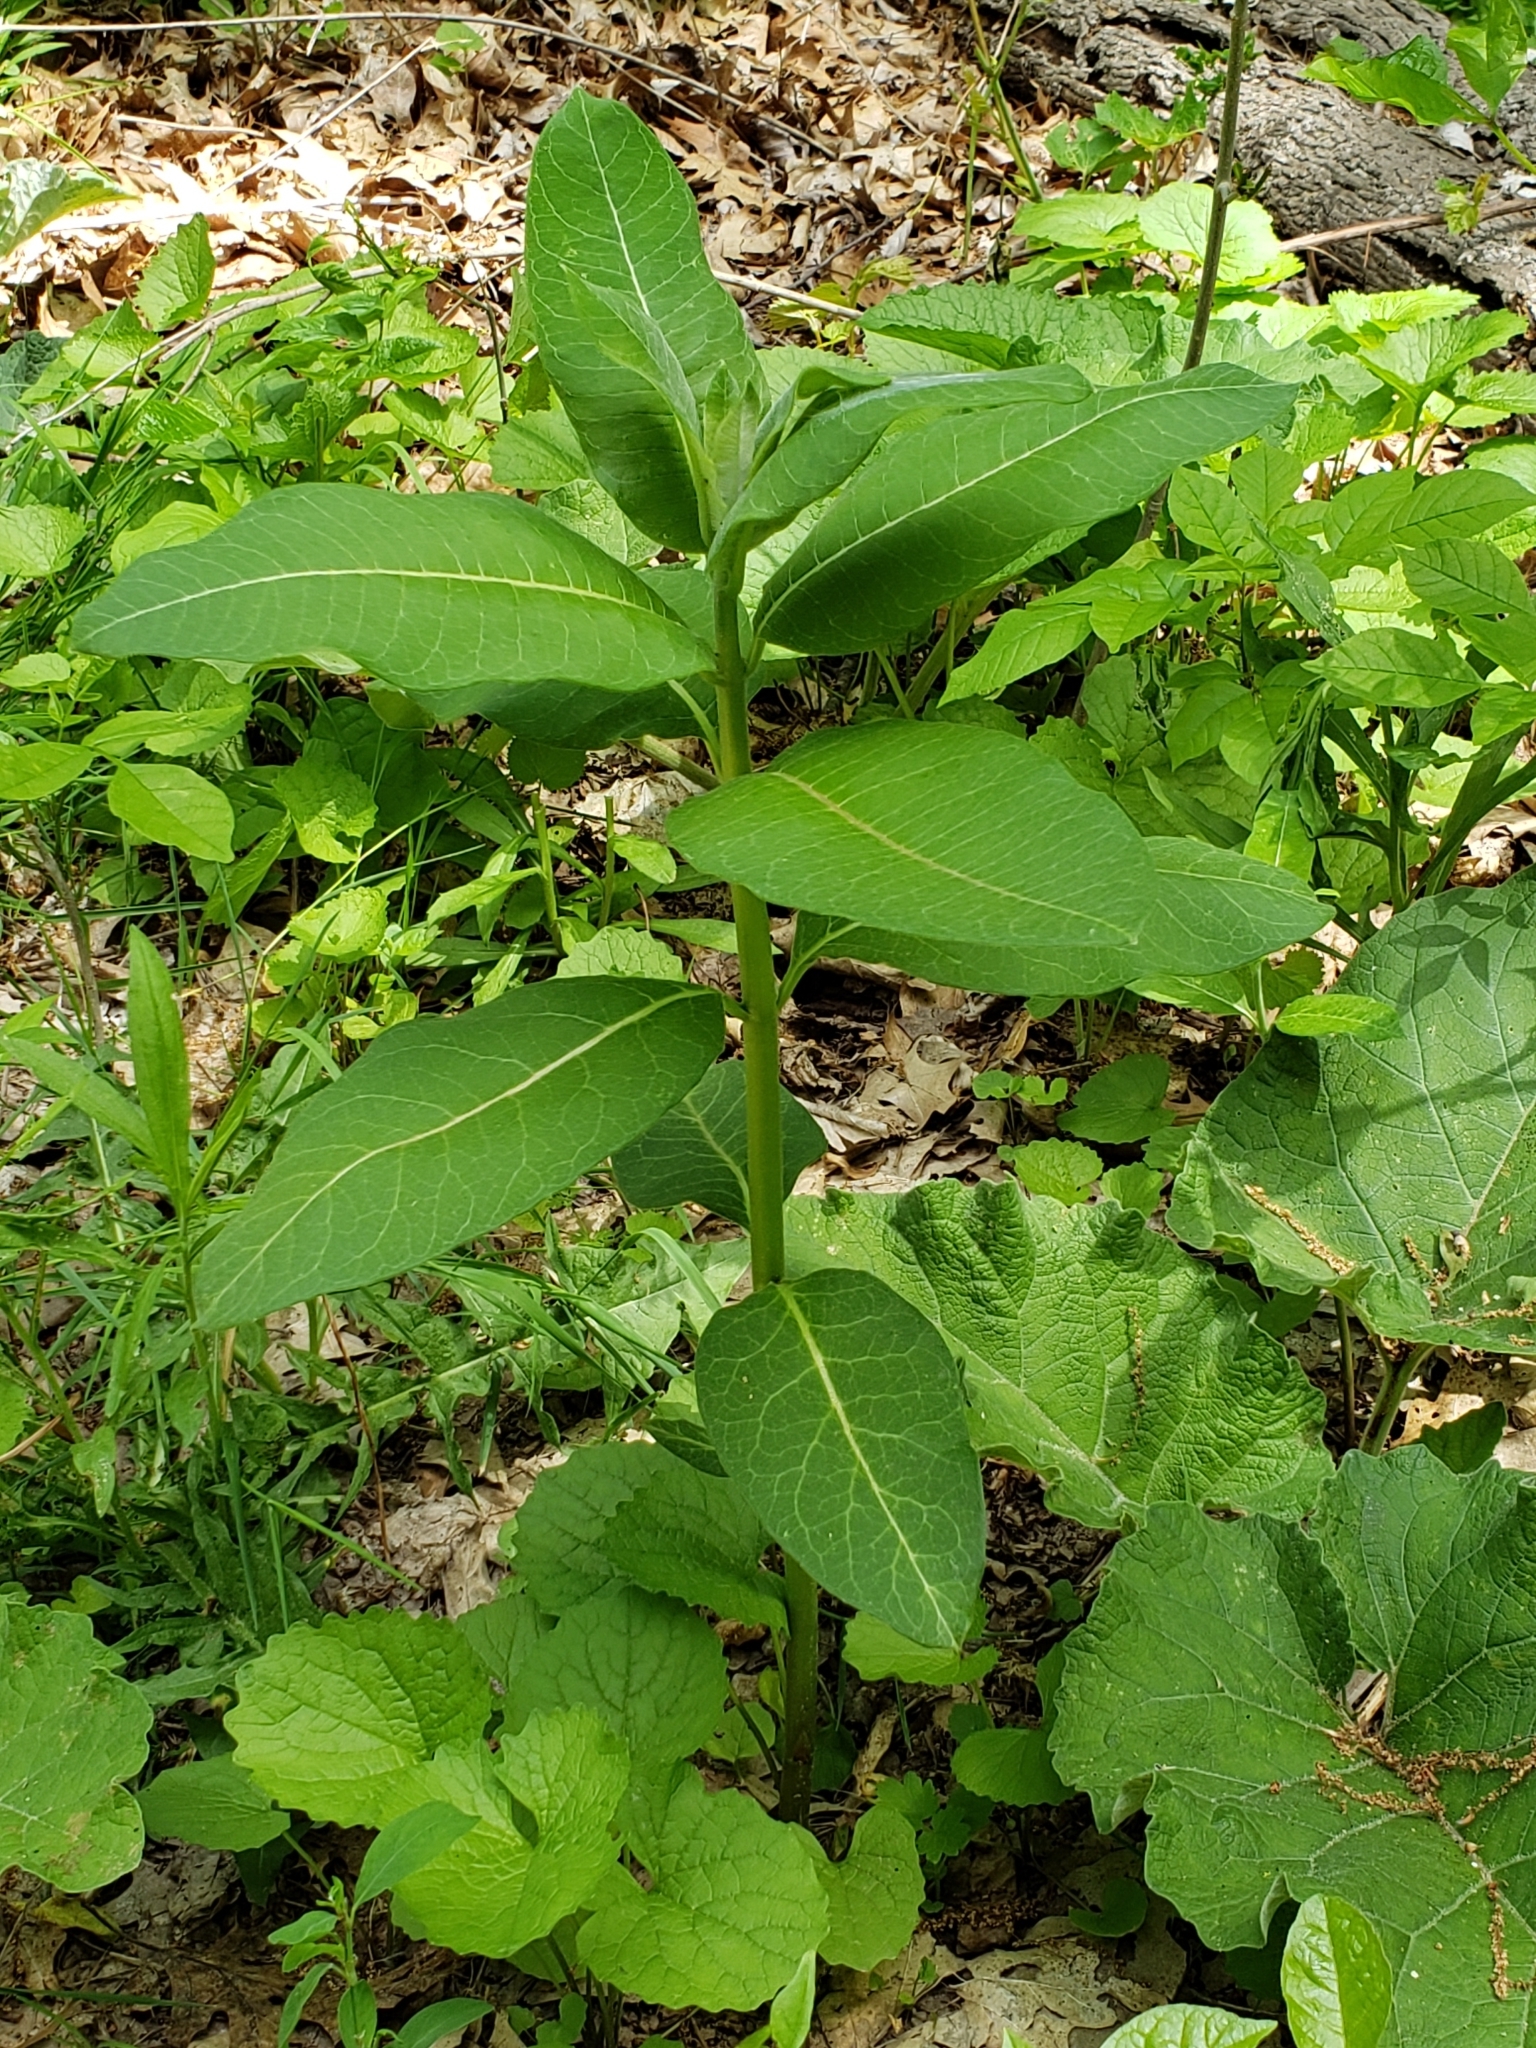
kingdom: Plantae
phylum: Tracheophyta
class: Magnoliopsida
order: Gentianales
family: Apocynaceae
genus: Asclepias
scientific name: Asclepias syriaca
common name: Common milkweed
